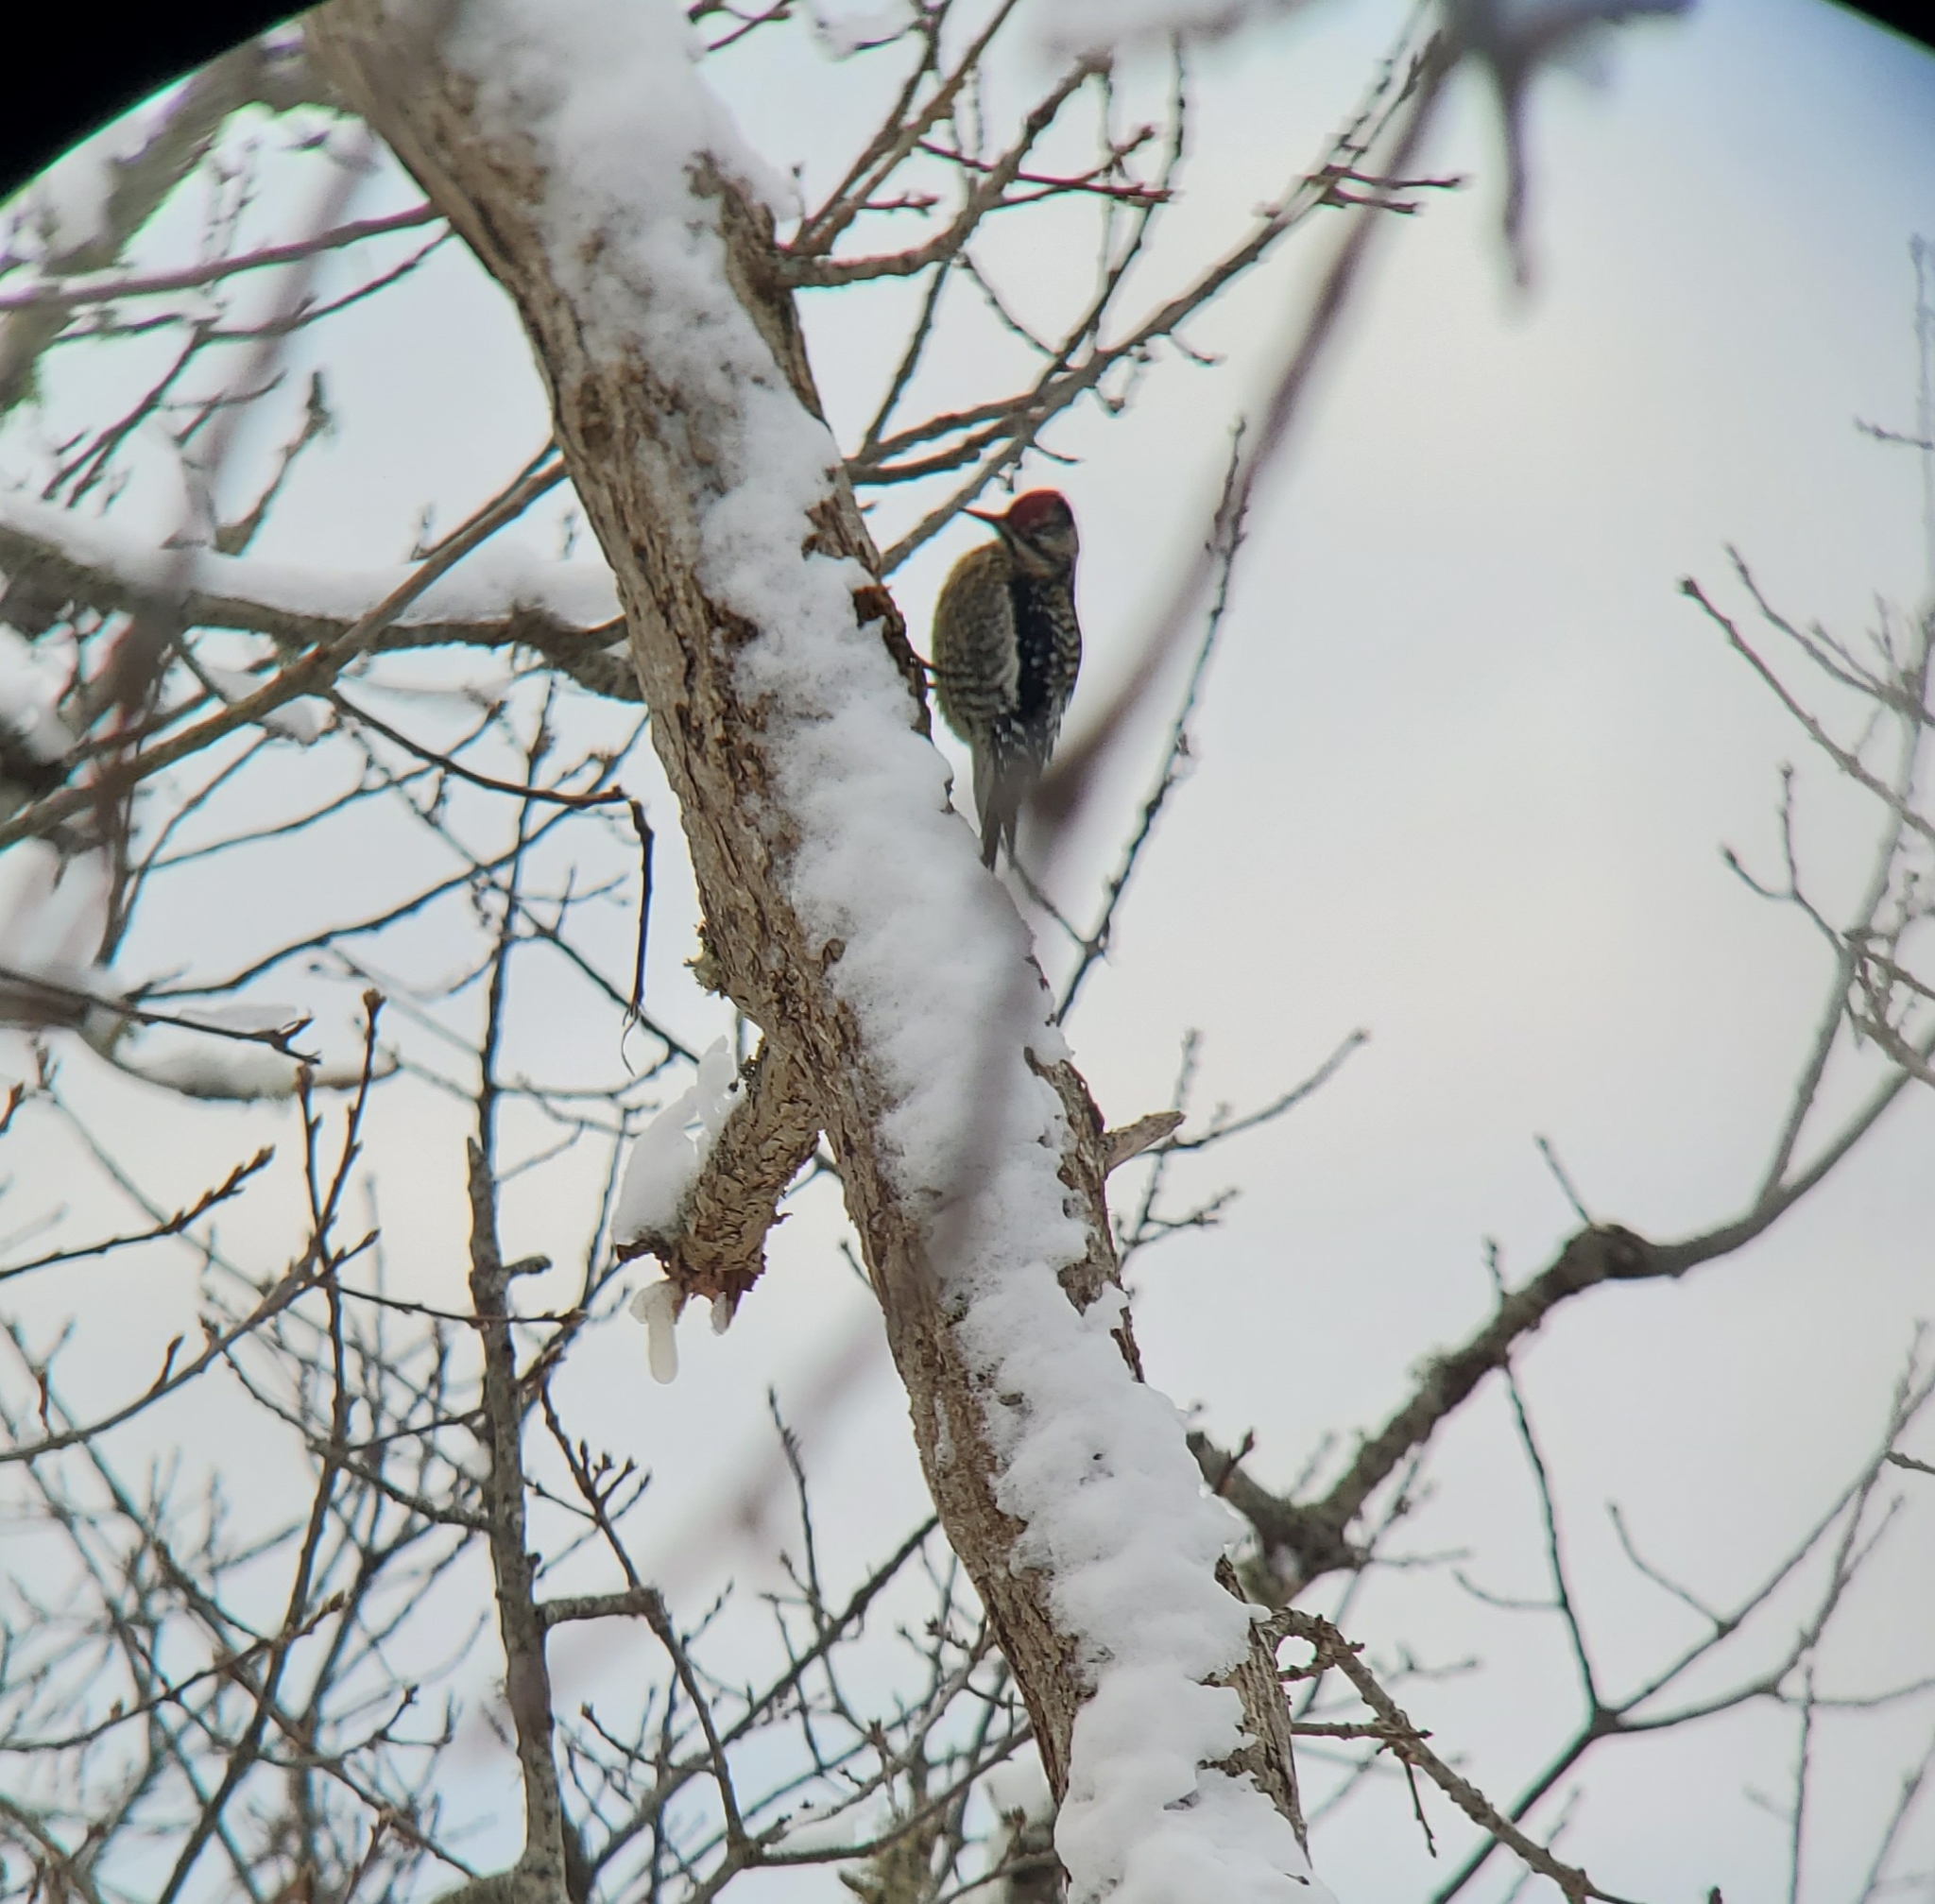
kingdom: Animalia
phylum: Chordata
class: Aves
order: Piciformes
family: Picidae
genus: Sphyrapicus
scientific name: Sphyrapicus varius
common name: Yellow-bellied sapsucker
